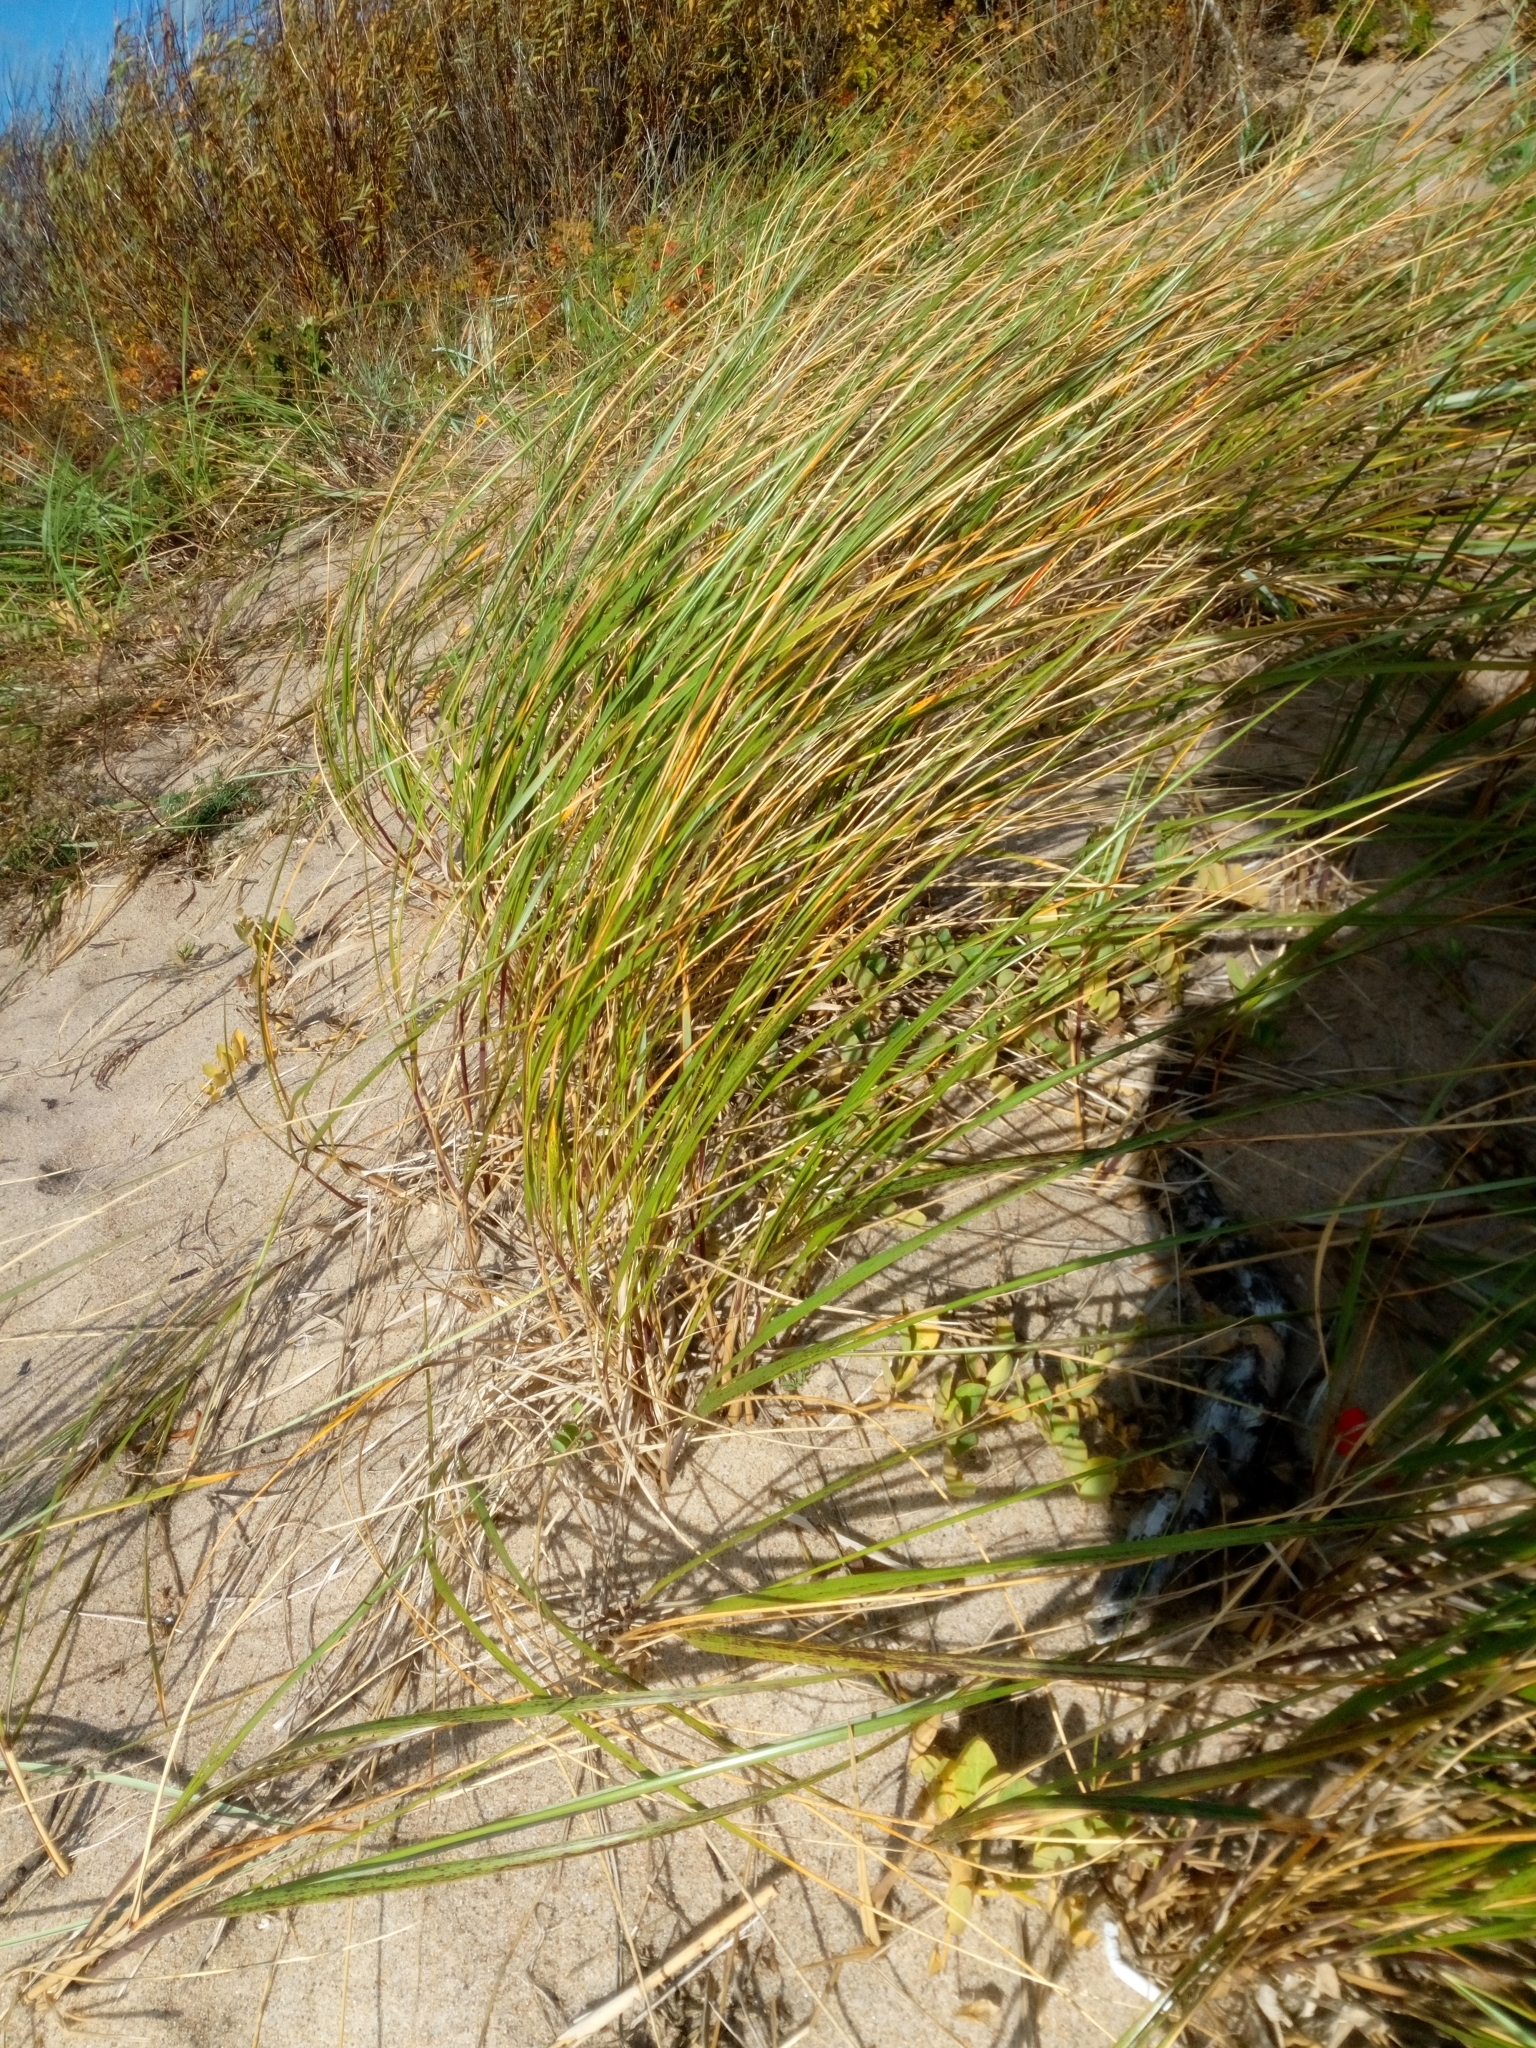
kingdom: Plantae
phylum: Tracheophyta
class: Liliopsida
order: Poales
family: Poaceae
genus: Calamagrostis
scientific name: Calamagrostis arenaria
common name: European beachgrass
